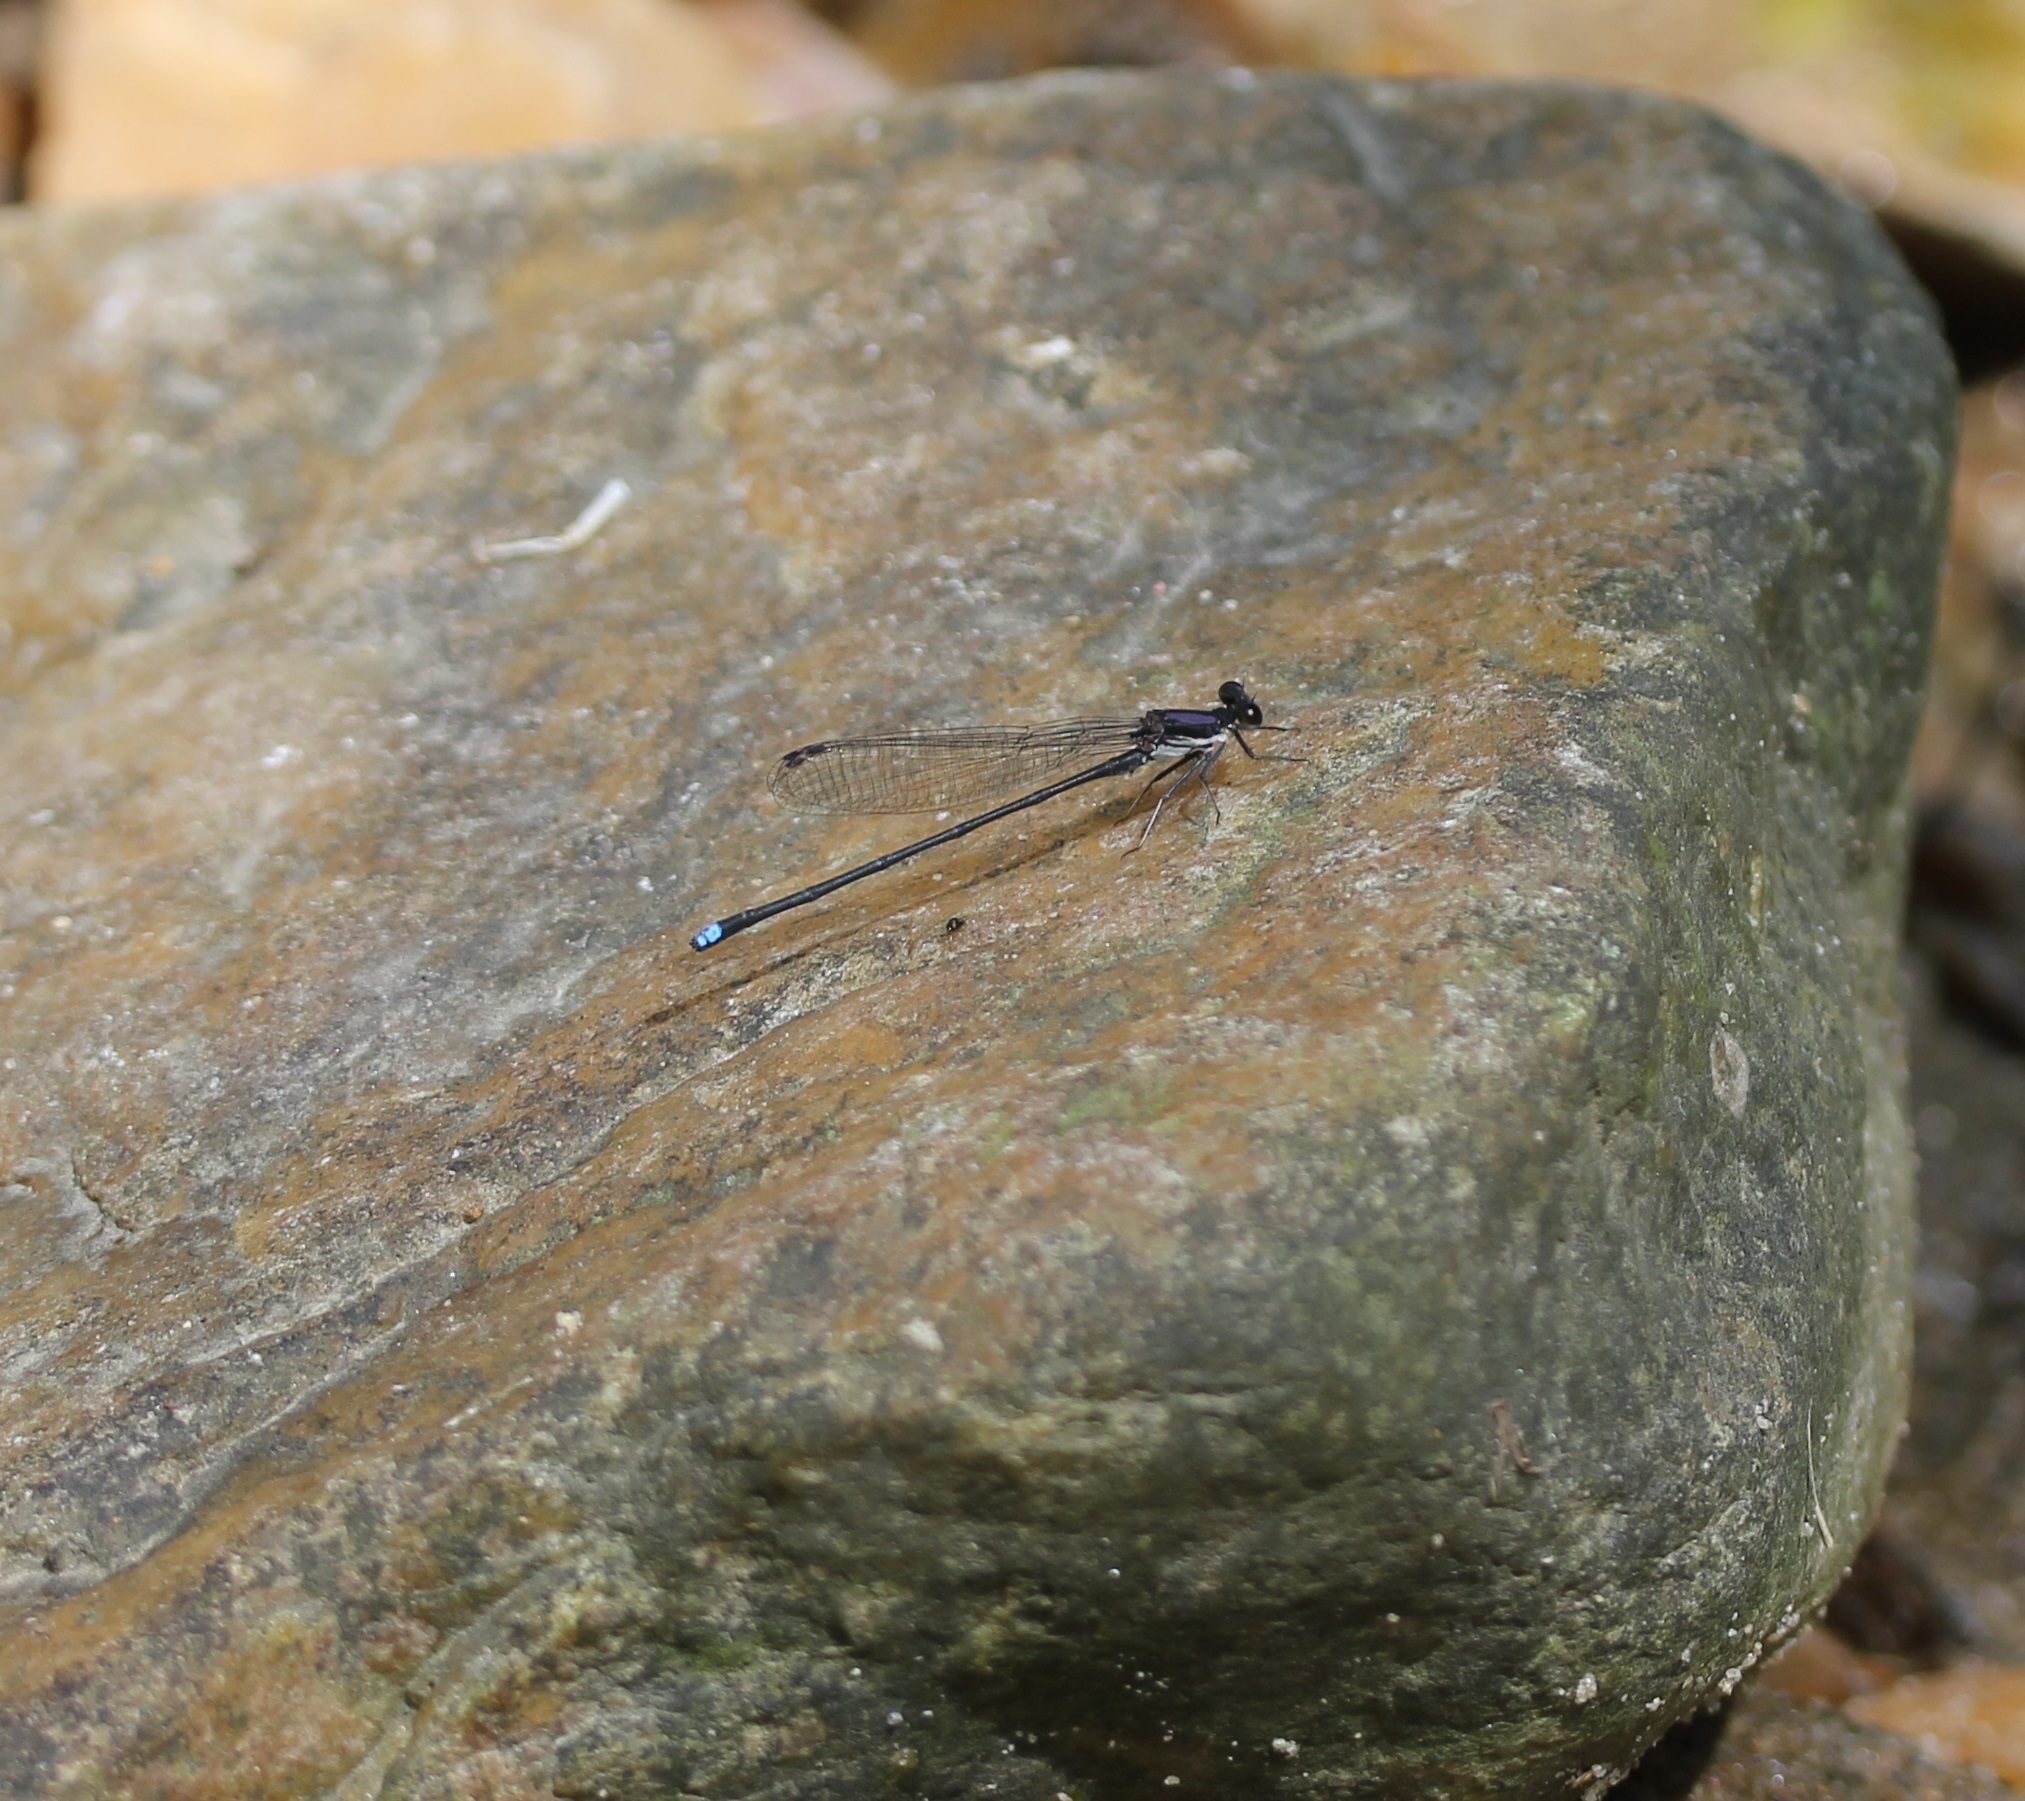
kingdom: Animalia
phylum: Arthropoda
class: Insecta
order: Odonata
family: Coenagrionidae
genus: Argia
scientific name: Argia tibialis
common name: Blue-tipped dancer
